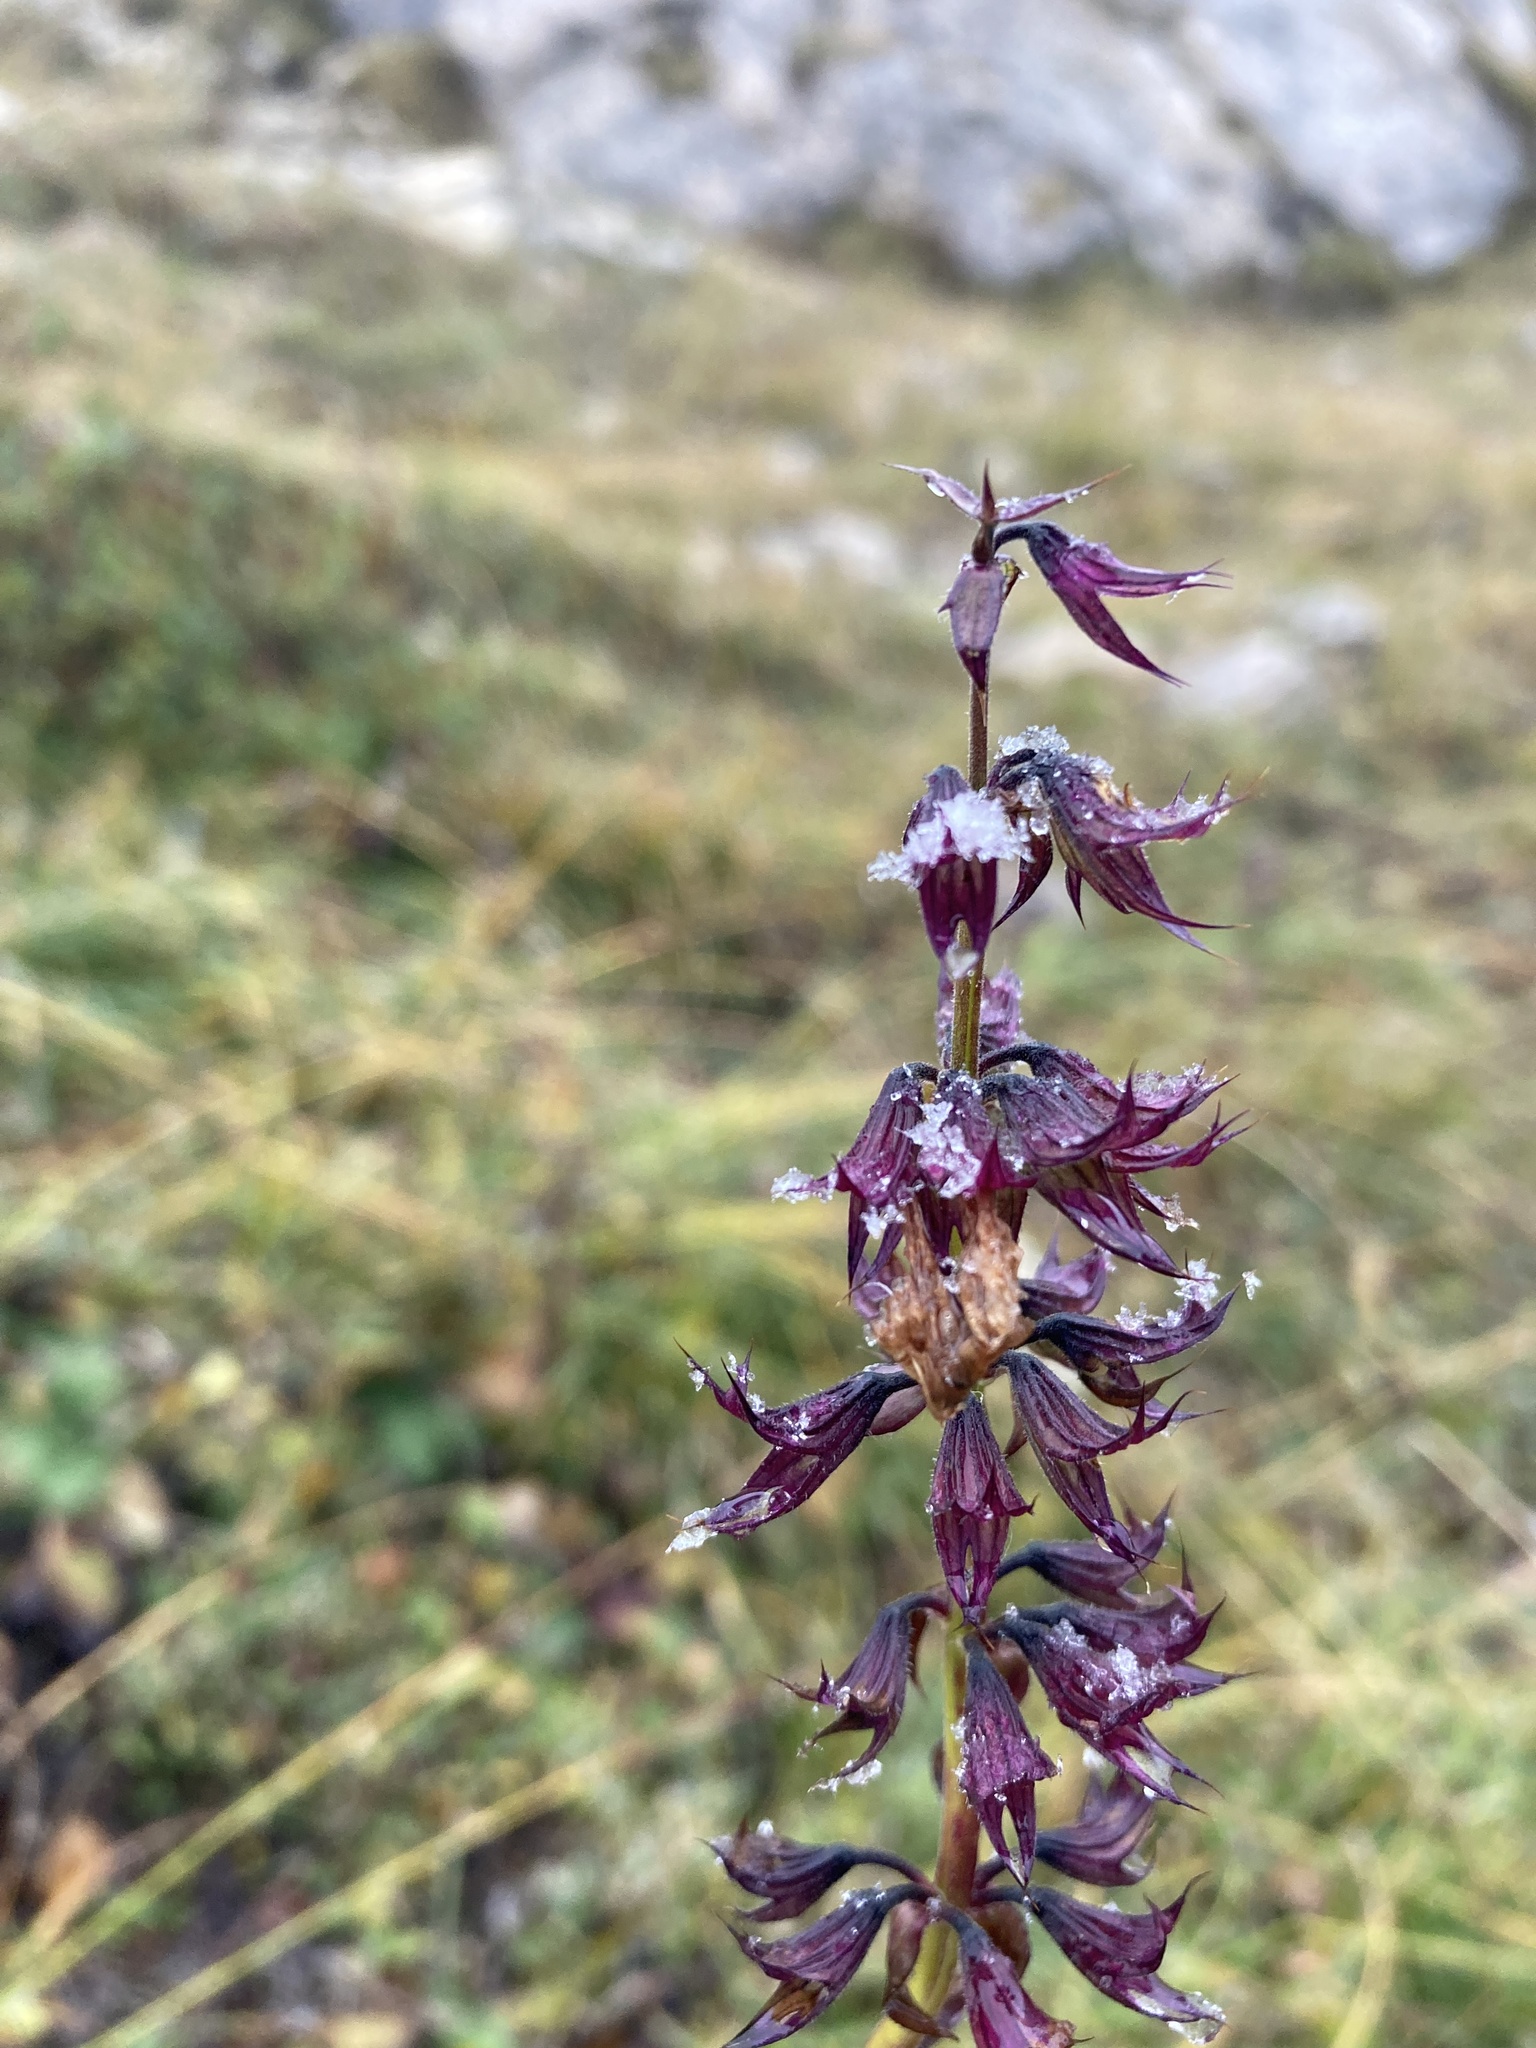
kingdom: Plantae
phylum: Tracheophyta
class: Magnoliopsida
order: Lamiales
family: Lamiaceae
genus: Horminum
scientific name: Horminum pyrenaicum
